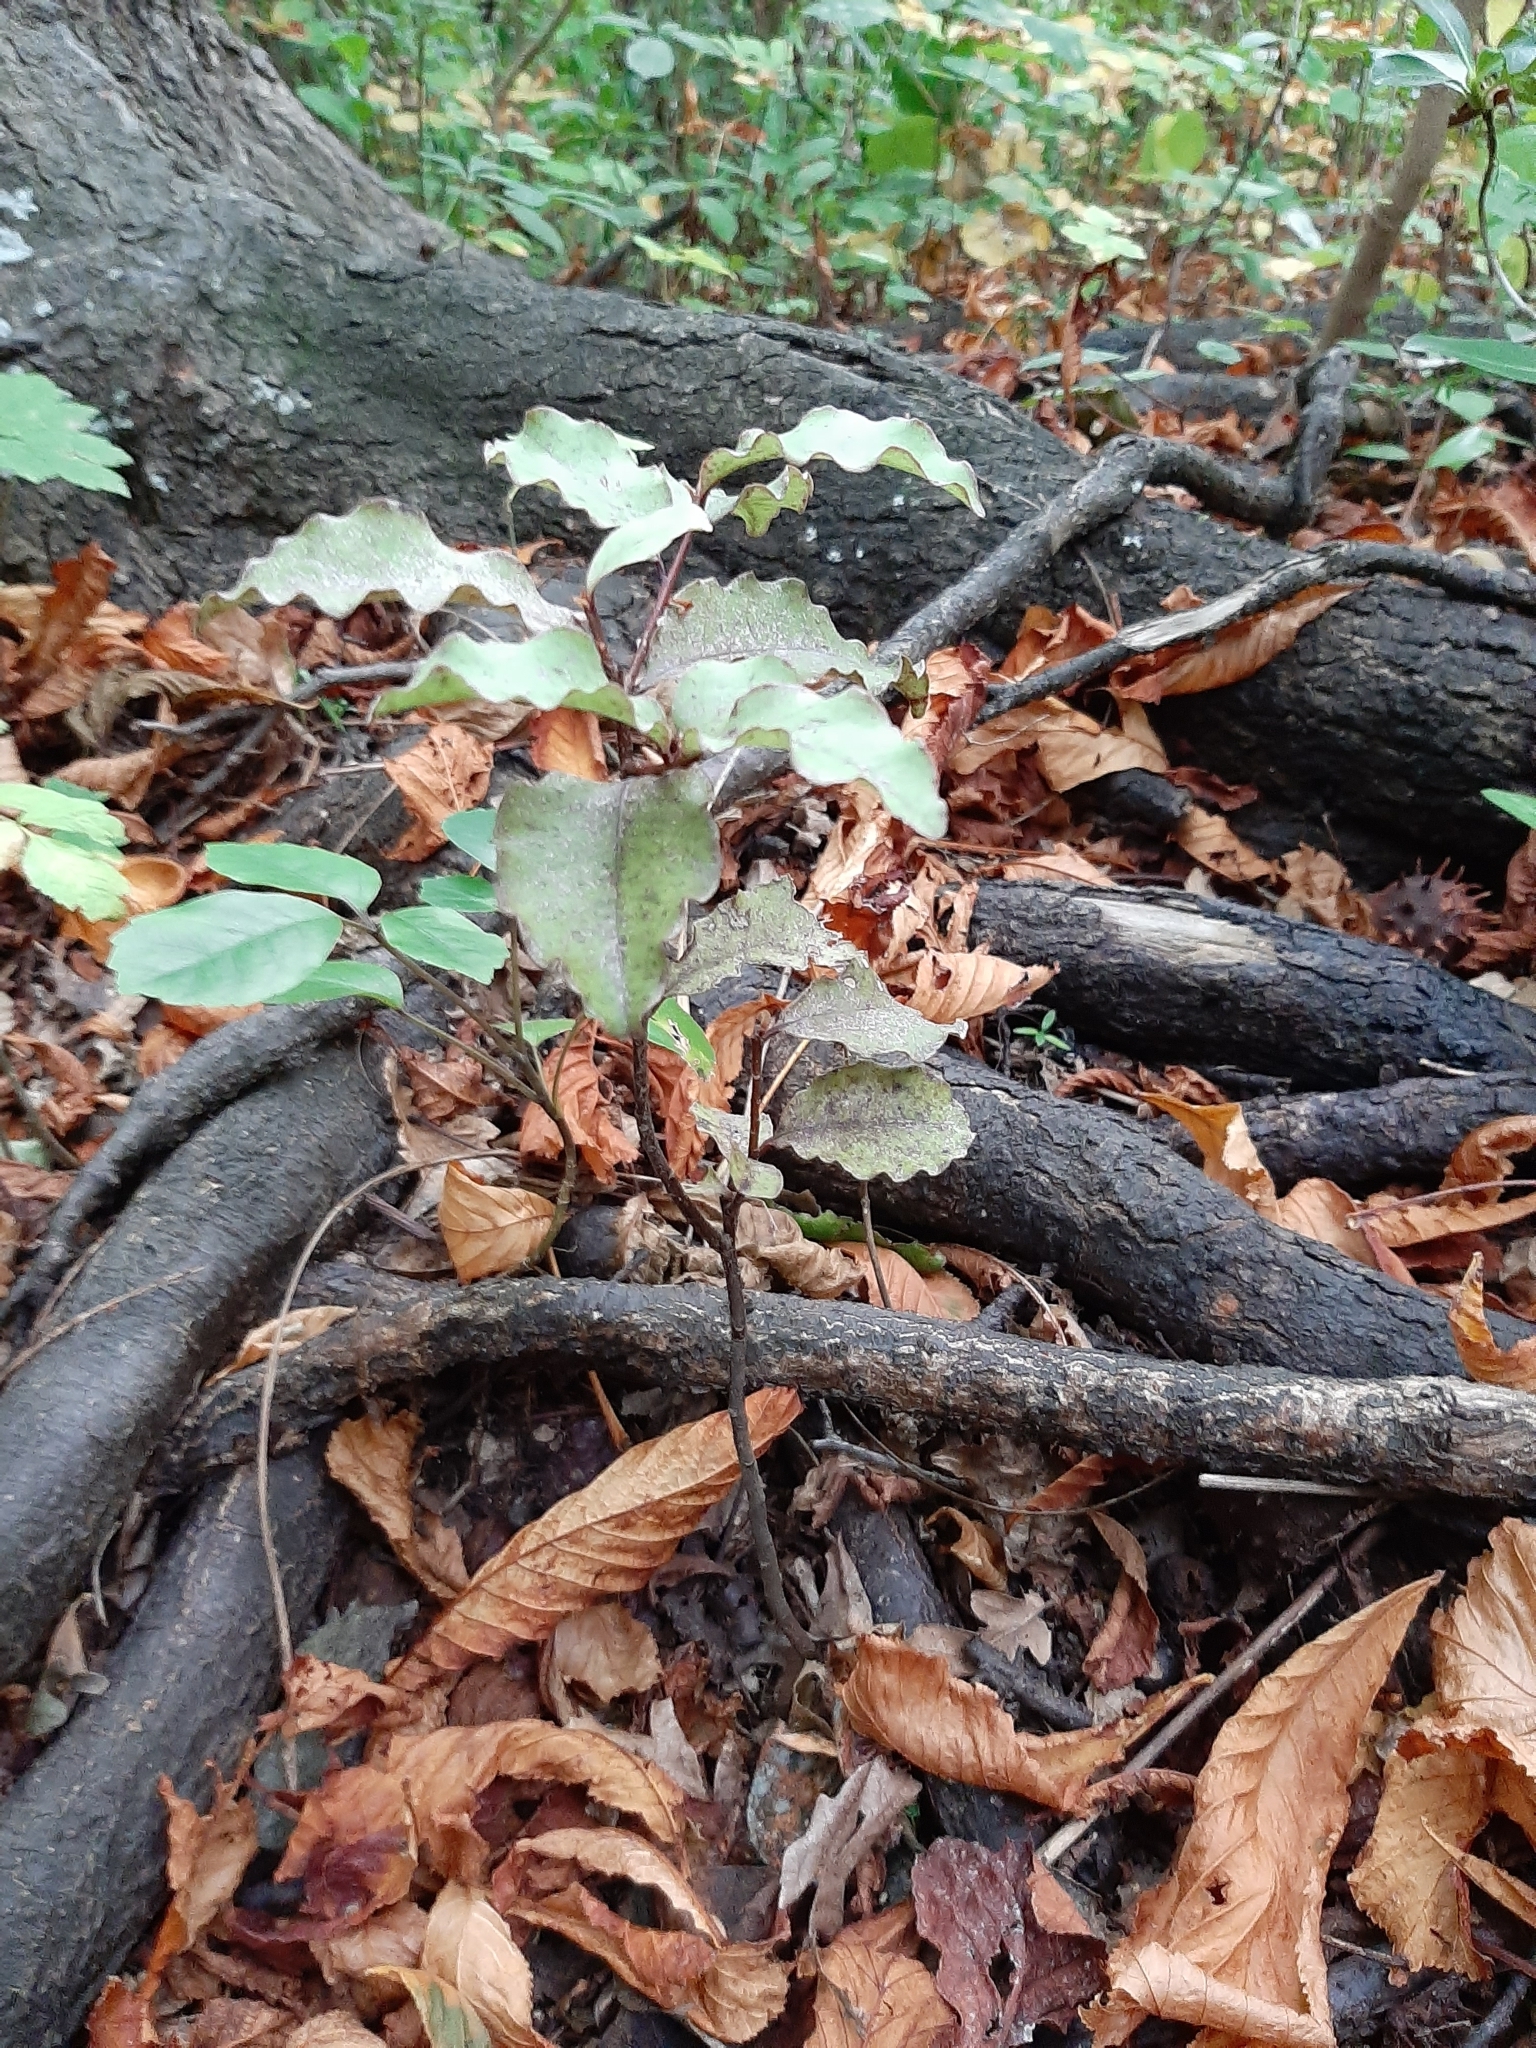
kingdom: Plantae
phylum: Tracheophyta
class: Magnoliopsida
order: Ericales
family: Primulaceae
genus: Myrsine
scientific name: Myrsine australis
